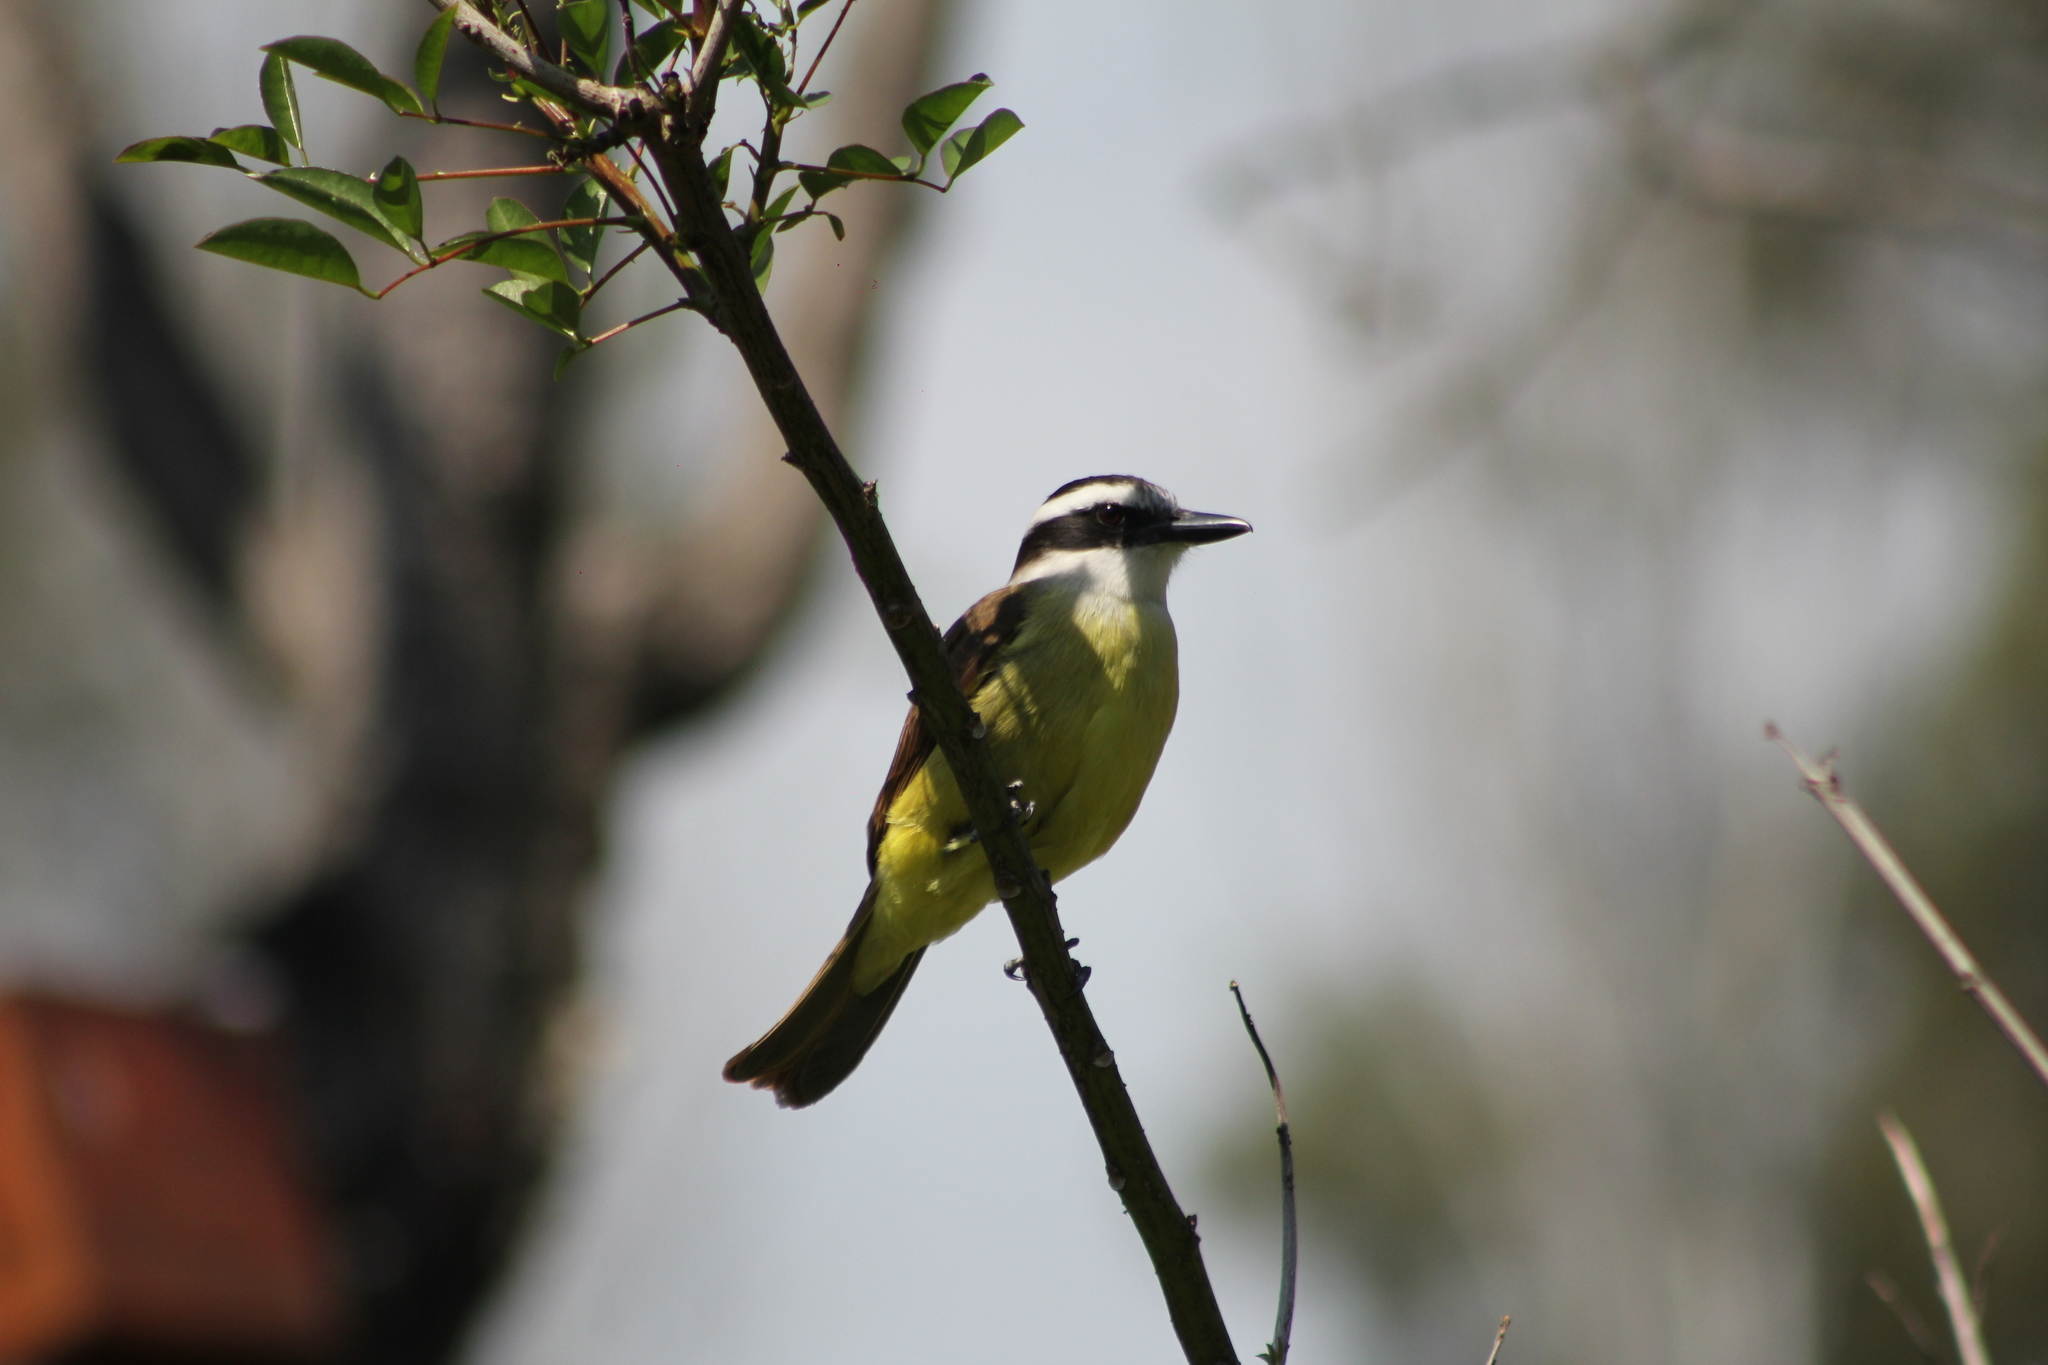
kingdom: Animalia
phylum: Chordata
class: Aves
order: Passeriformes
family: Tyrannidae
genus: Pitangus
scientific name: Pitangus sulphuratus
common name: Great kiskadee
